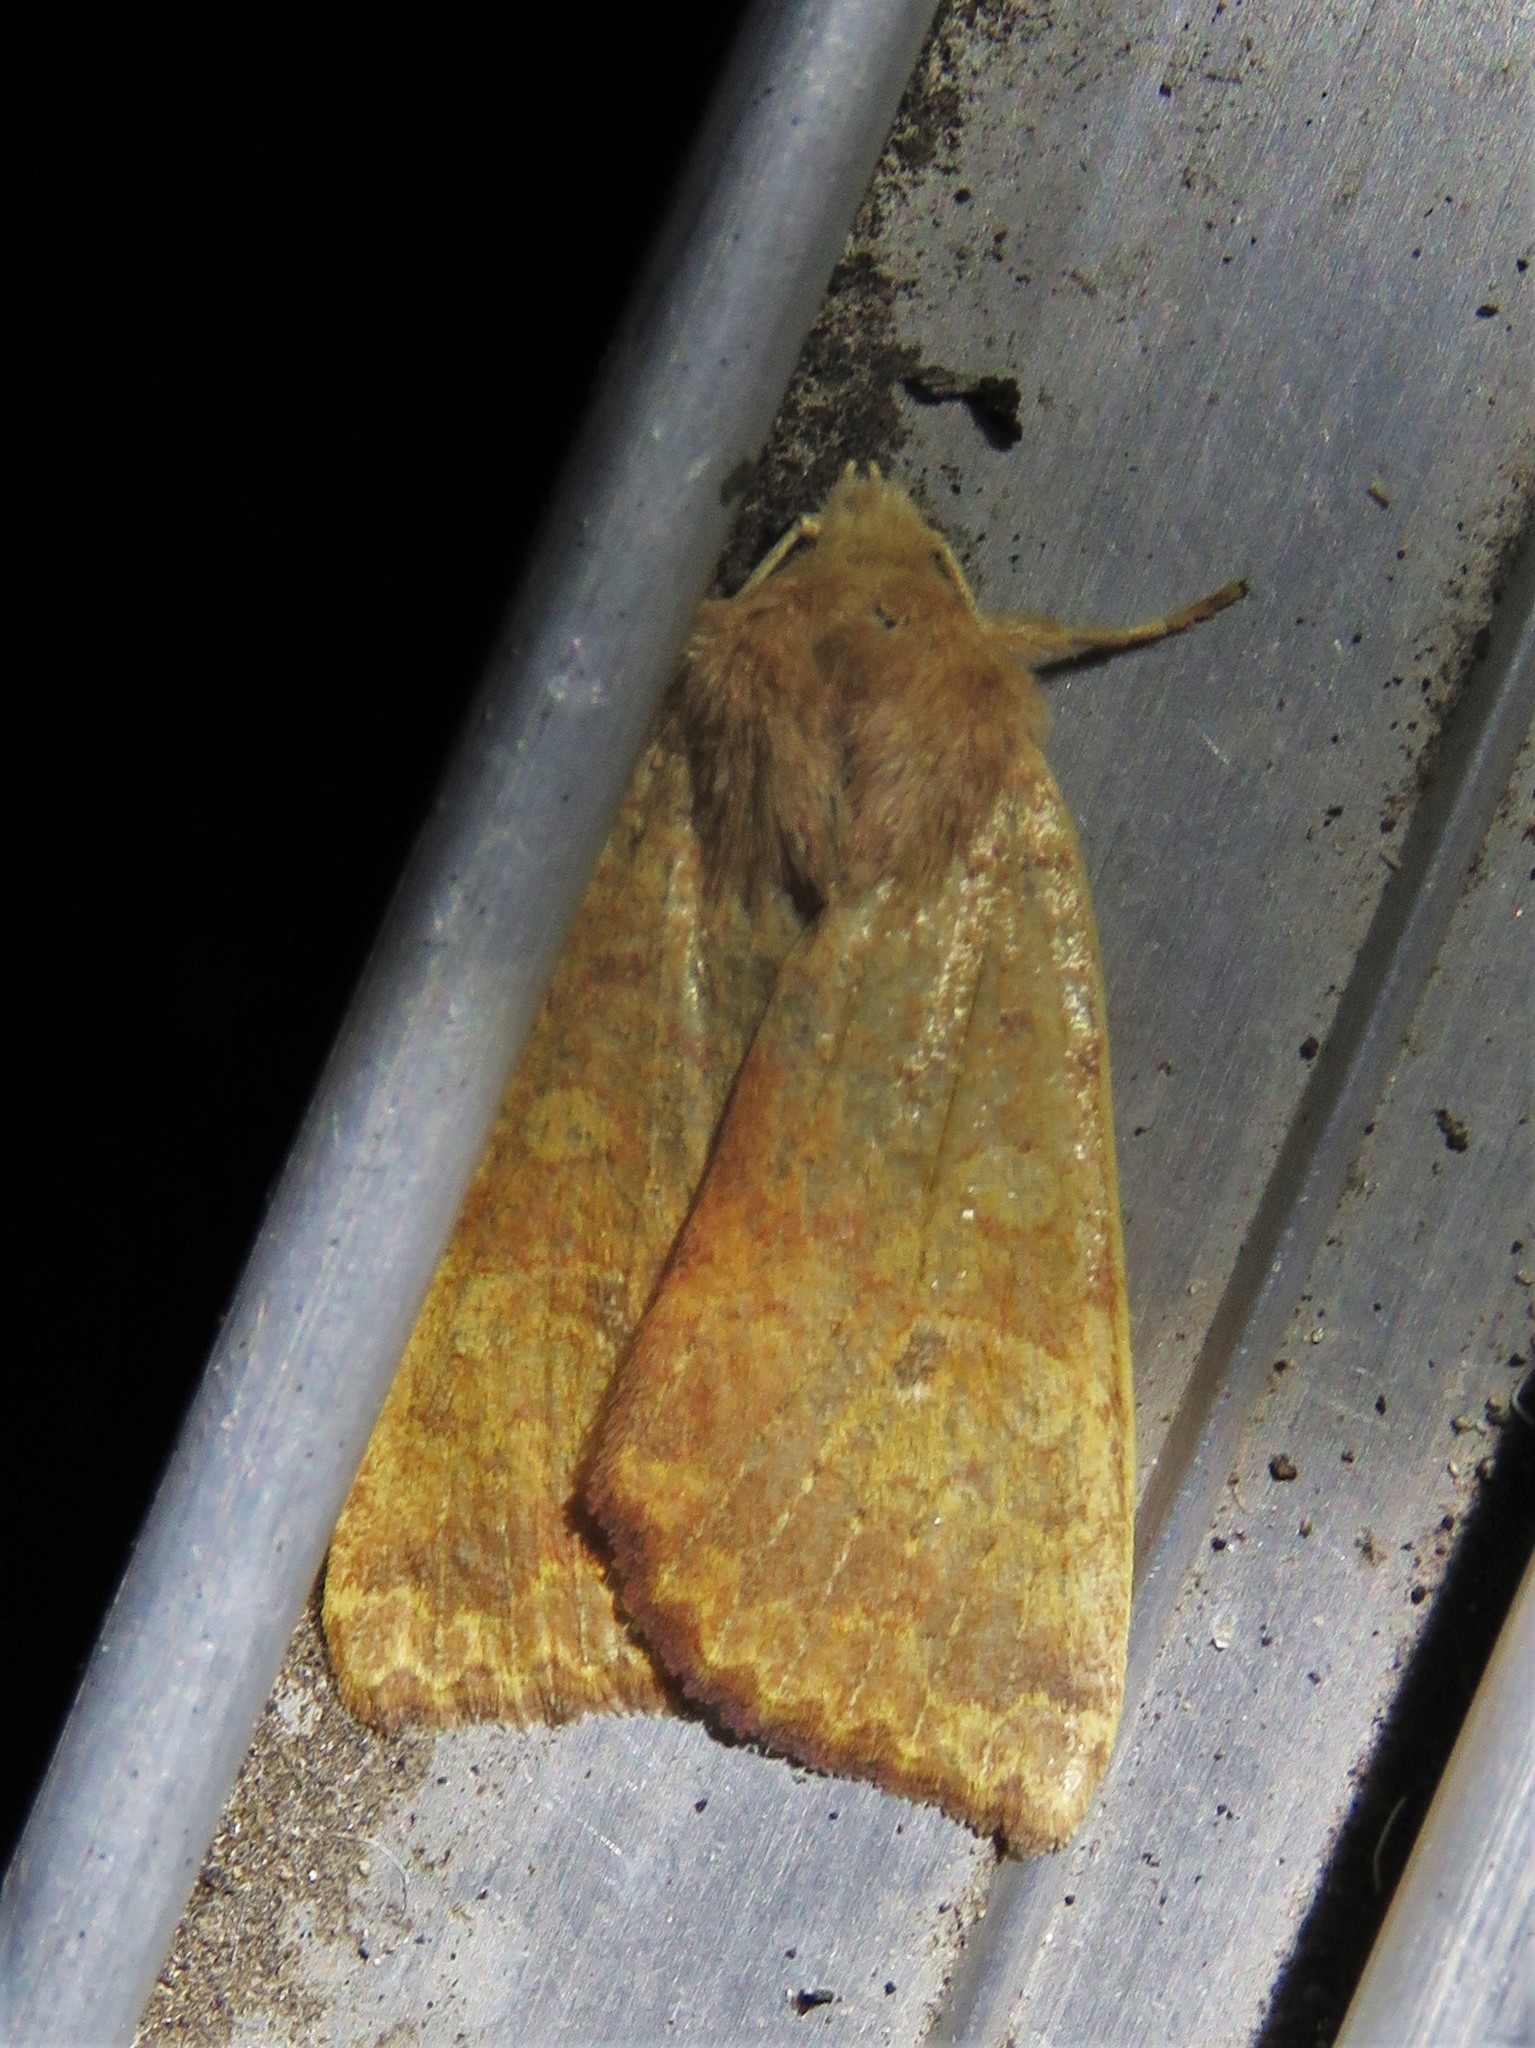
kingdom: Animalia
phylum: Arthropoda
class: Insecta
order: Lepidoptera
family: Noctuidae
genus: Agrochola
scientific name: Agrochola bicolorago
